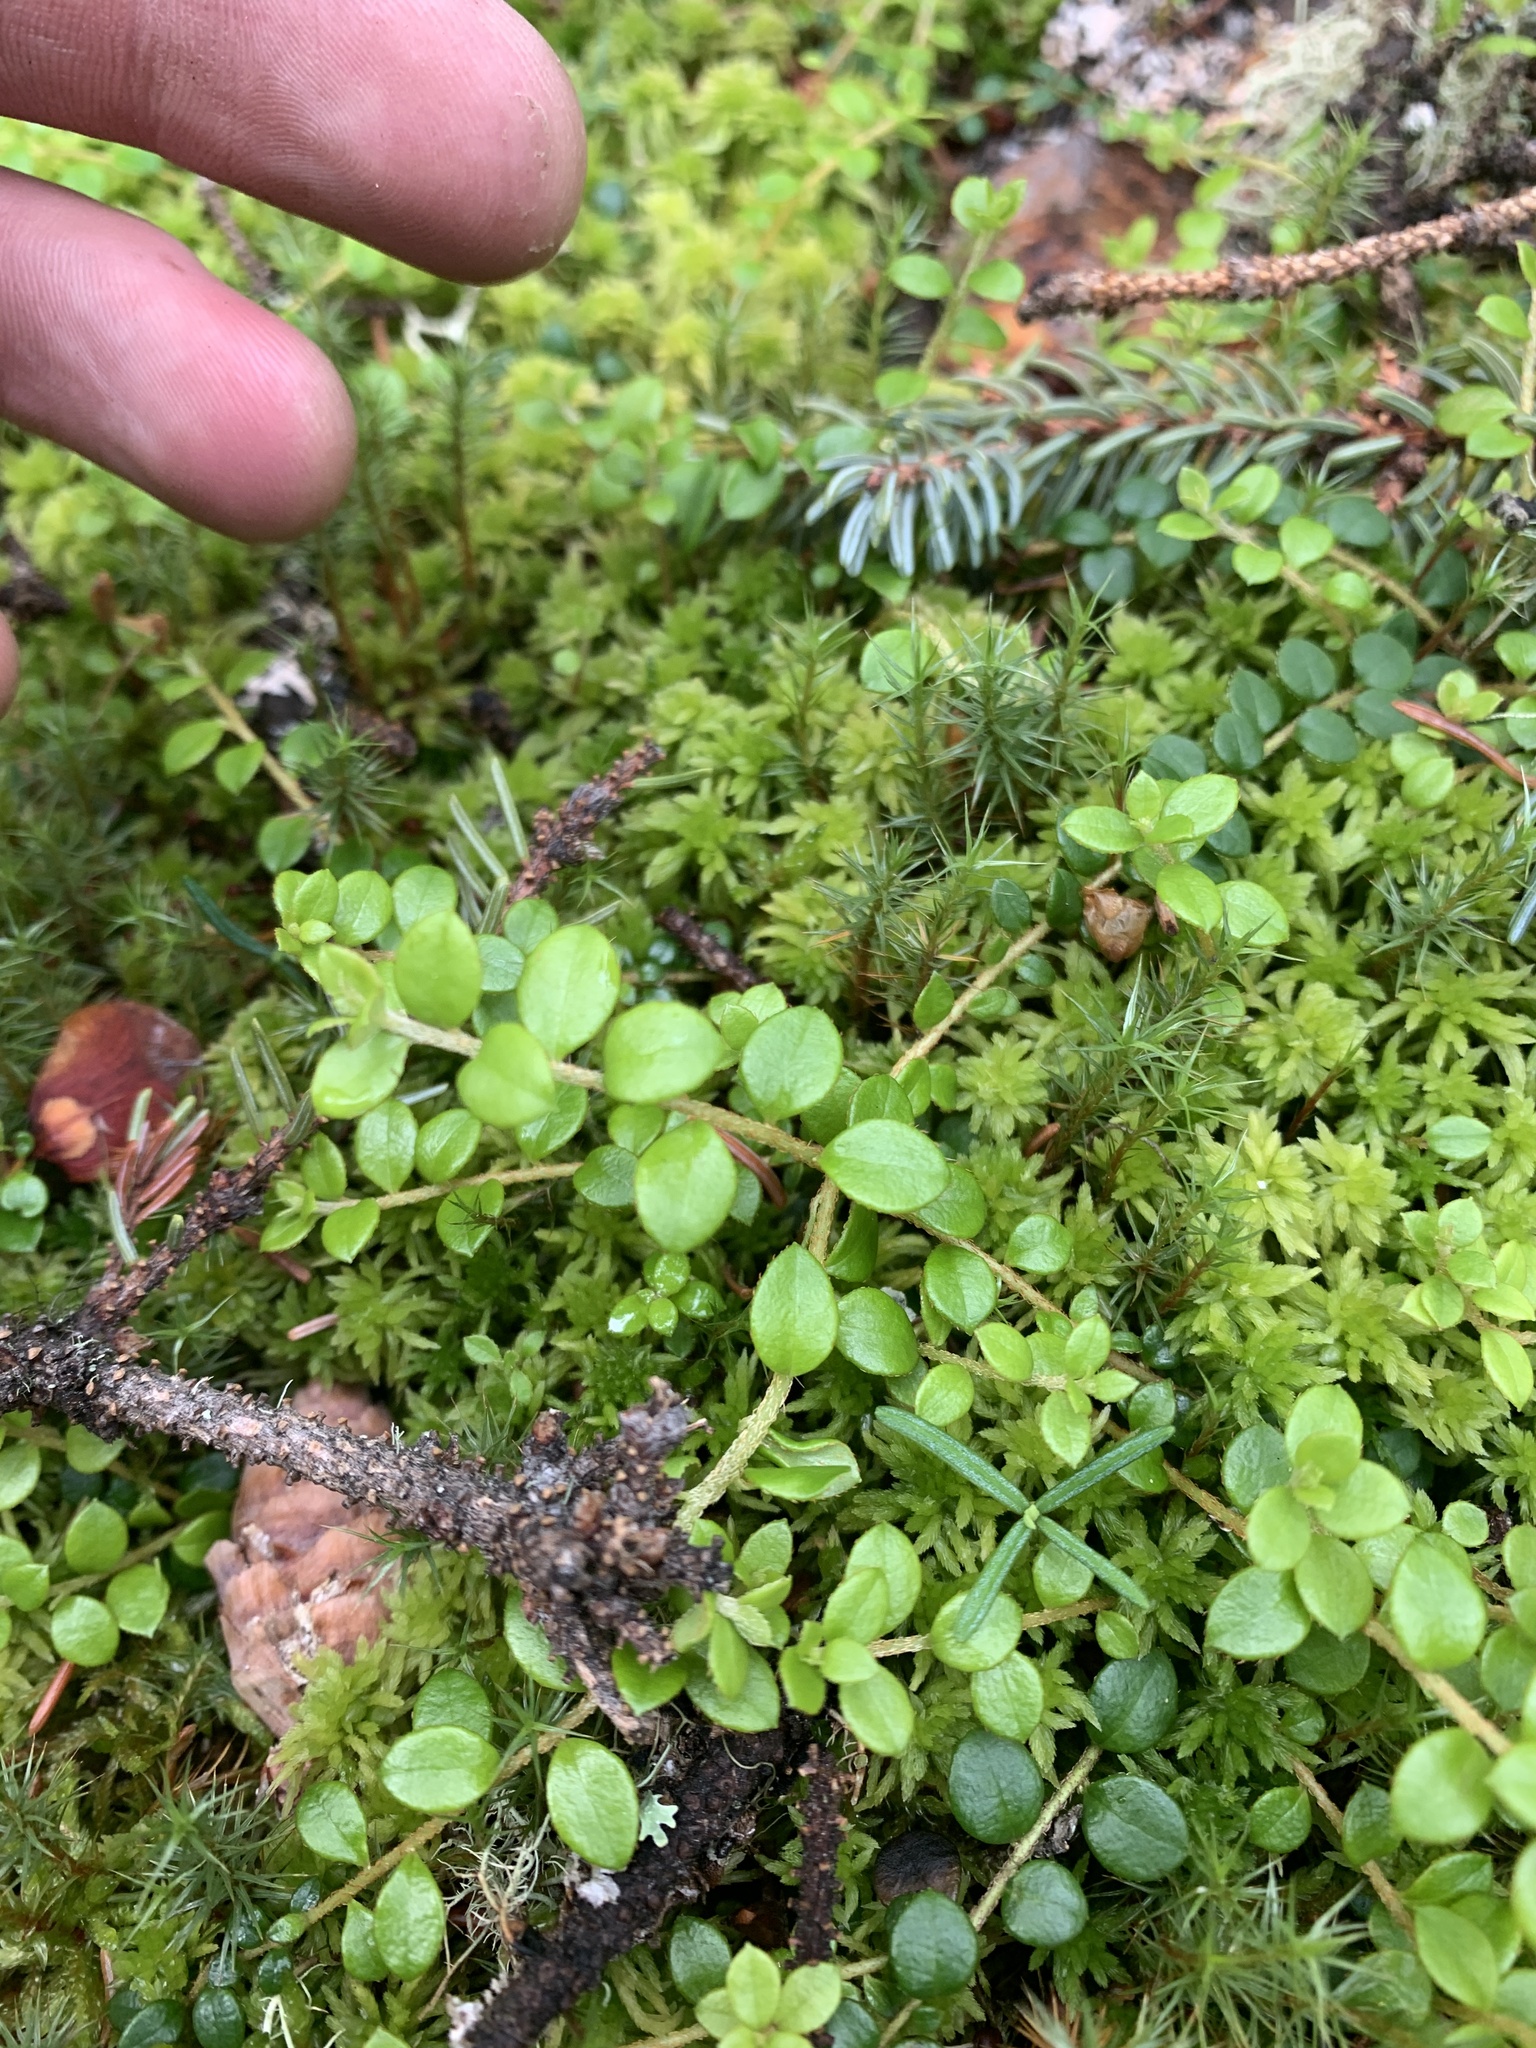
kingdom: Plantae
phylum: Tracheophyta
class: Magnoliopsida
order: Ericales
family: Ericaceae
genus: Gaultheria
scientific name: Gaultheria hispidula
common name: Cancer wintergreen
